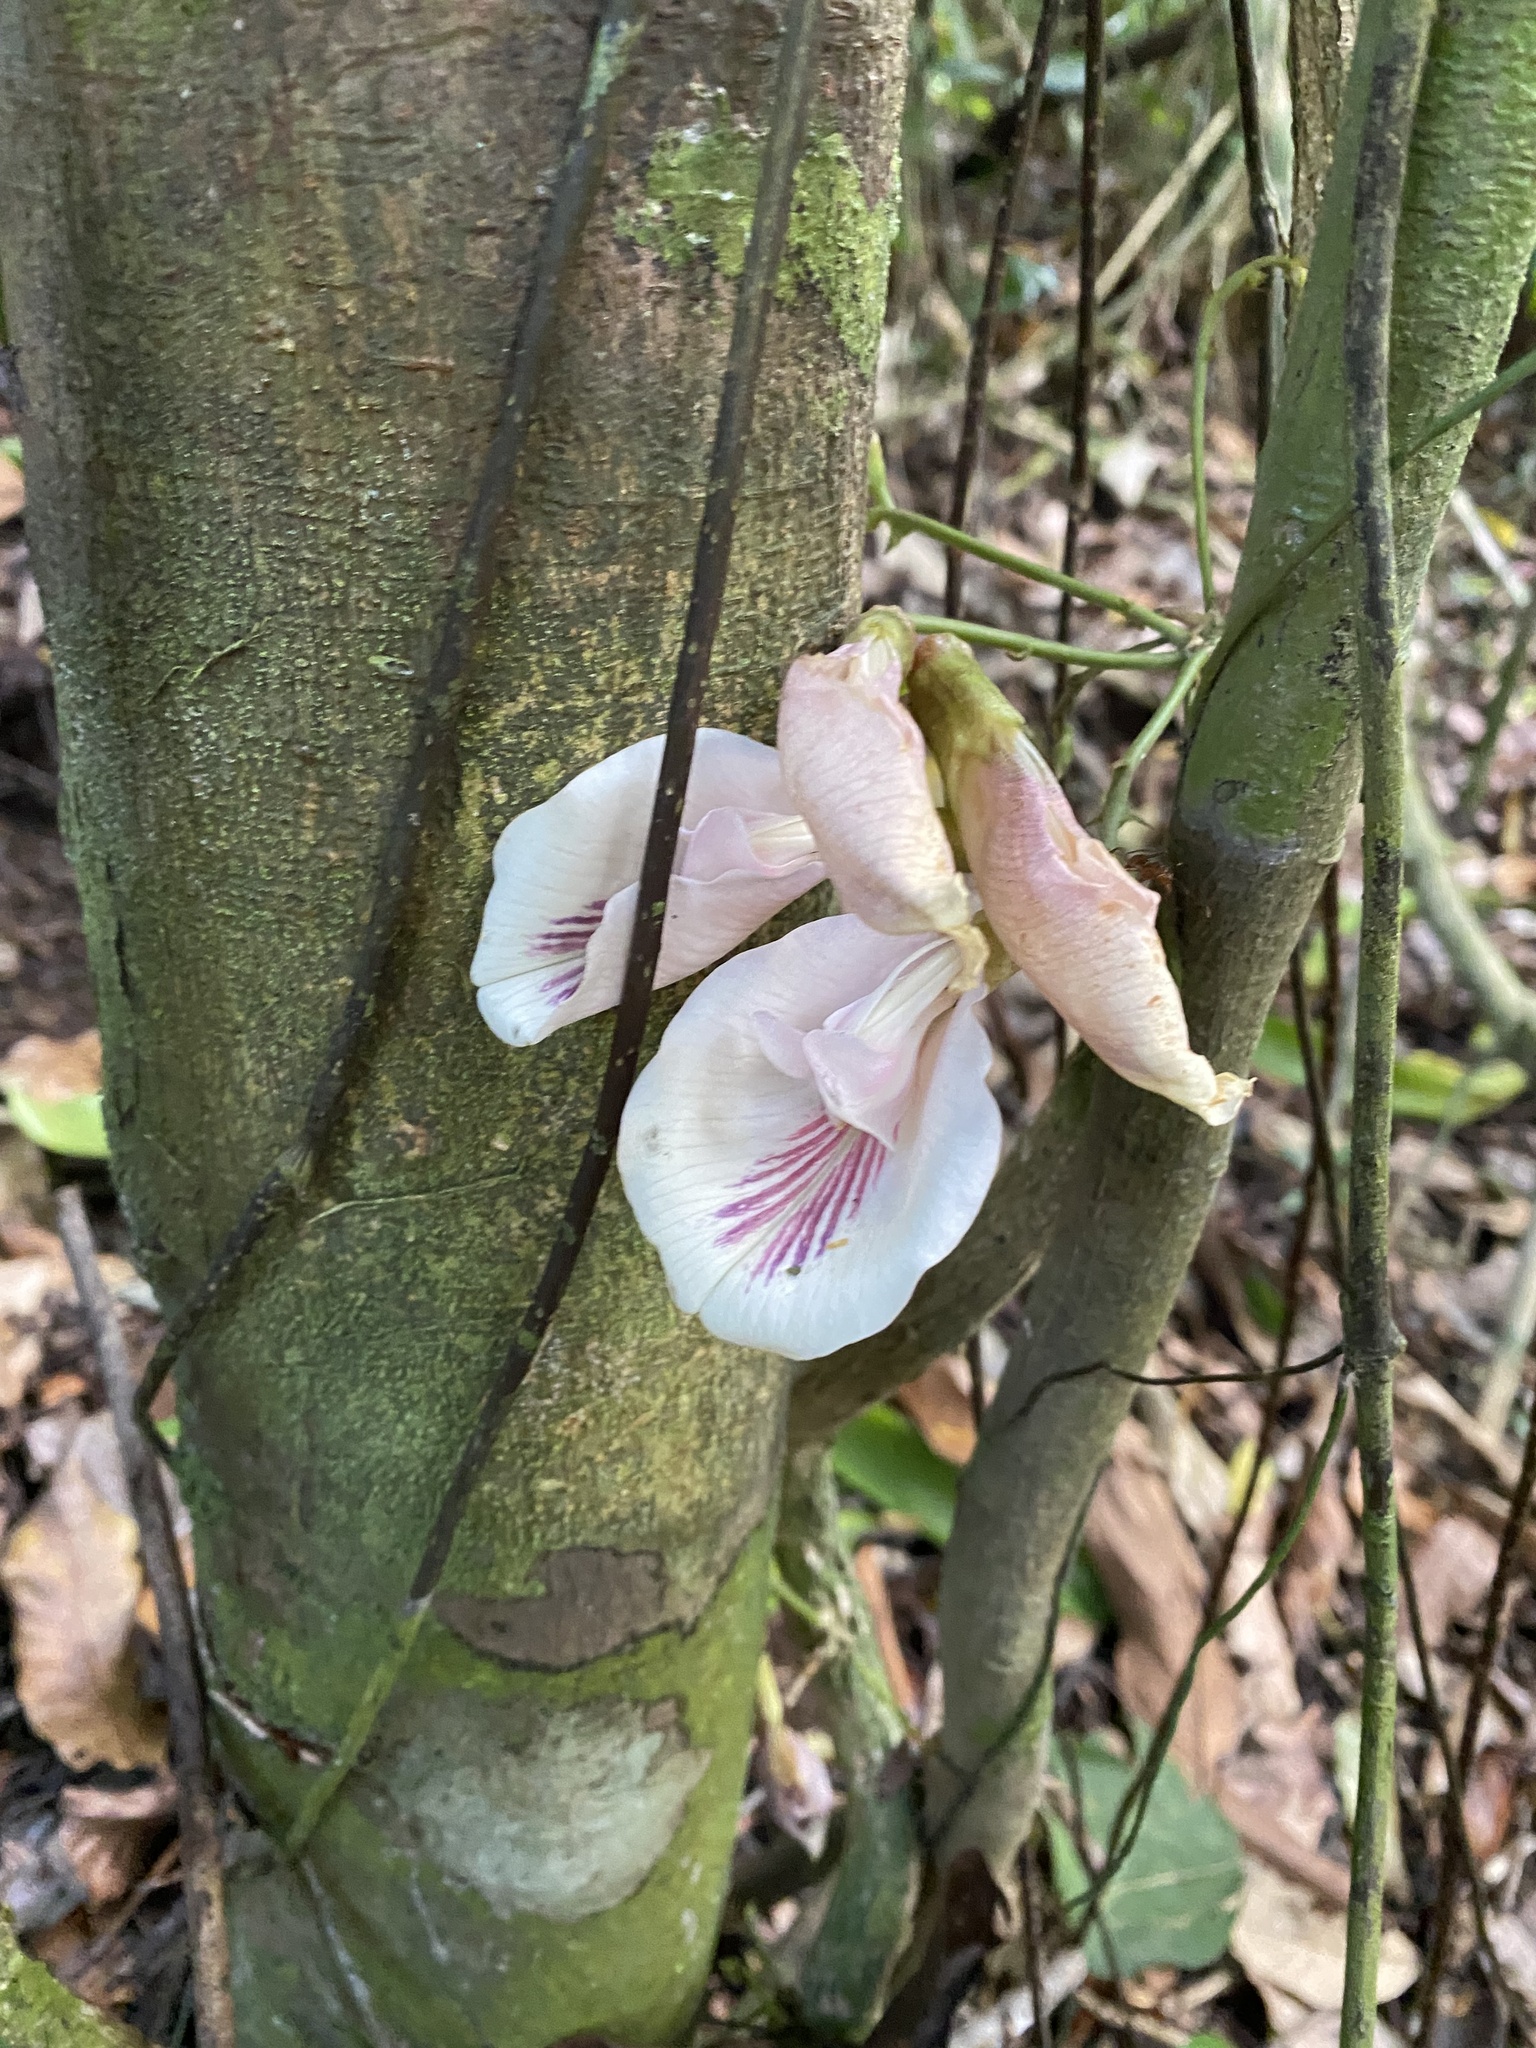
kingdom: Plantae
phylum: Tracheophyta
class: Magnoliopsida
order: Fabales
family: Fabaceae
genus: Clitoria
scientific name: Clitoria javitensis
